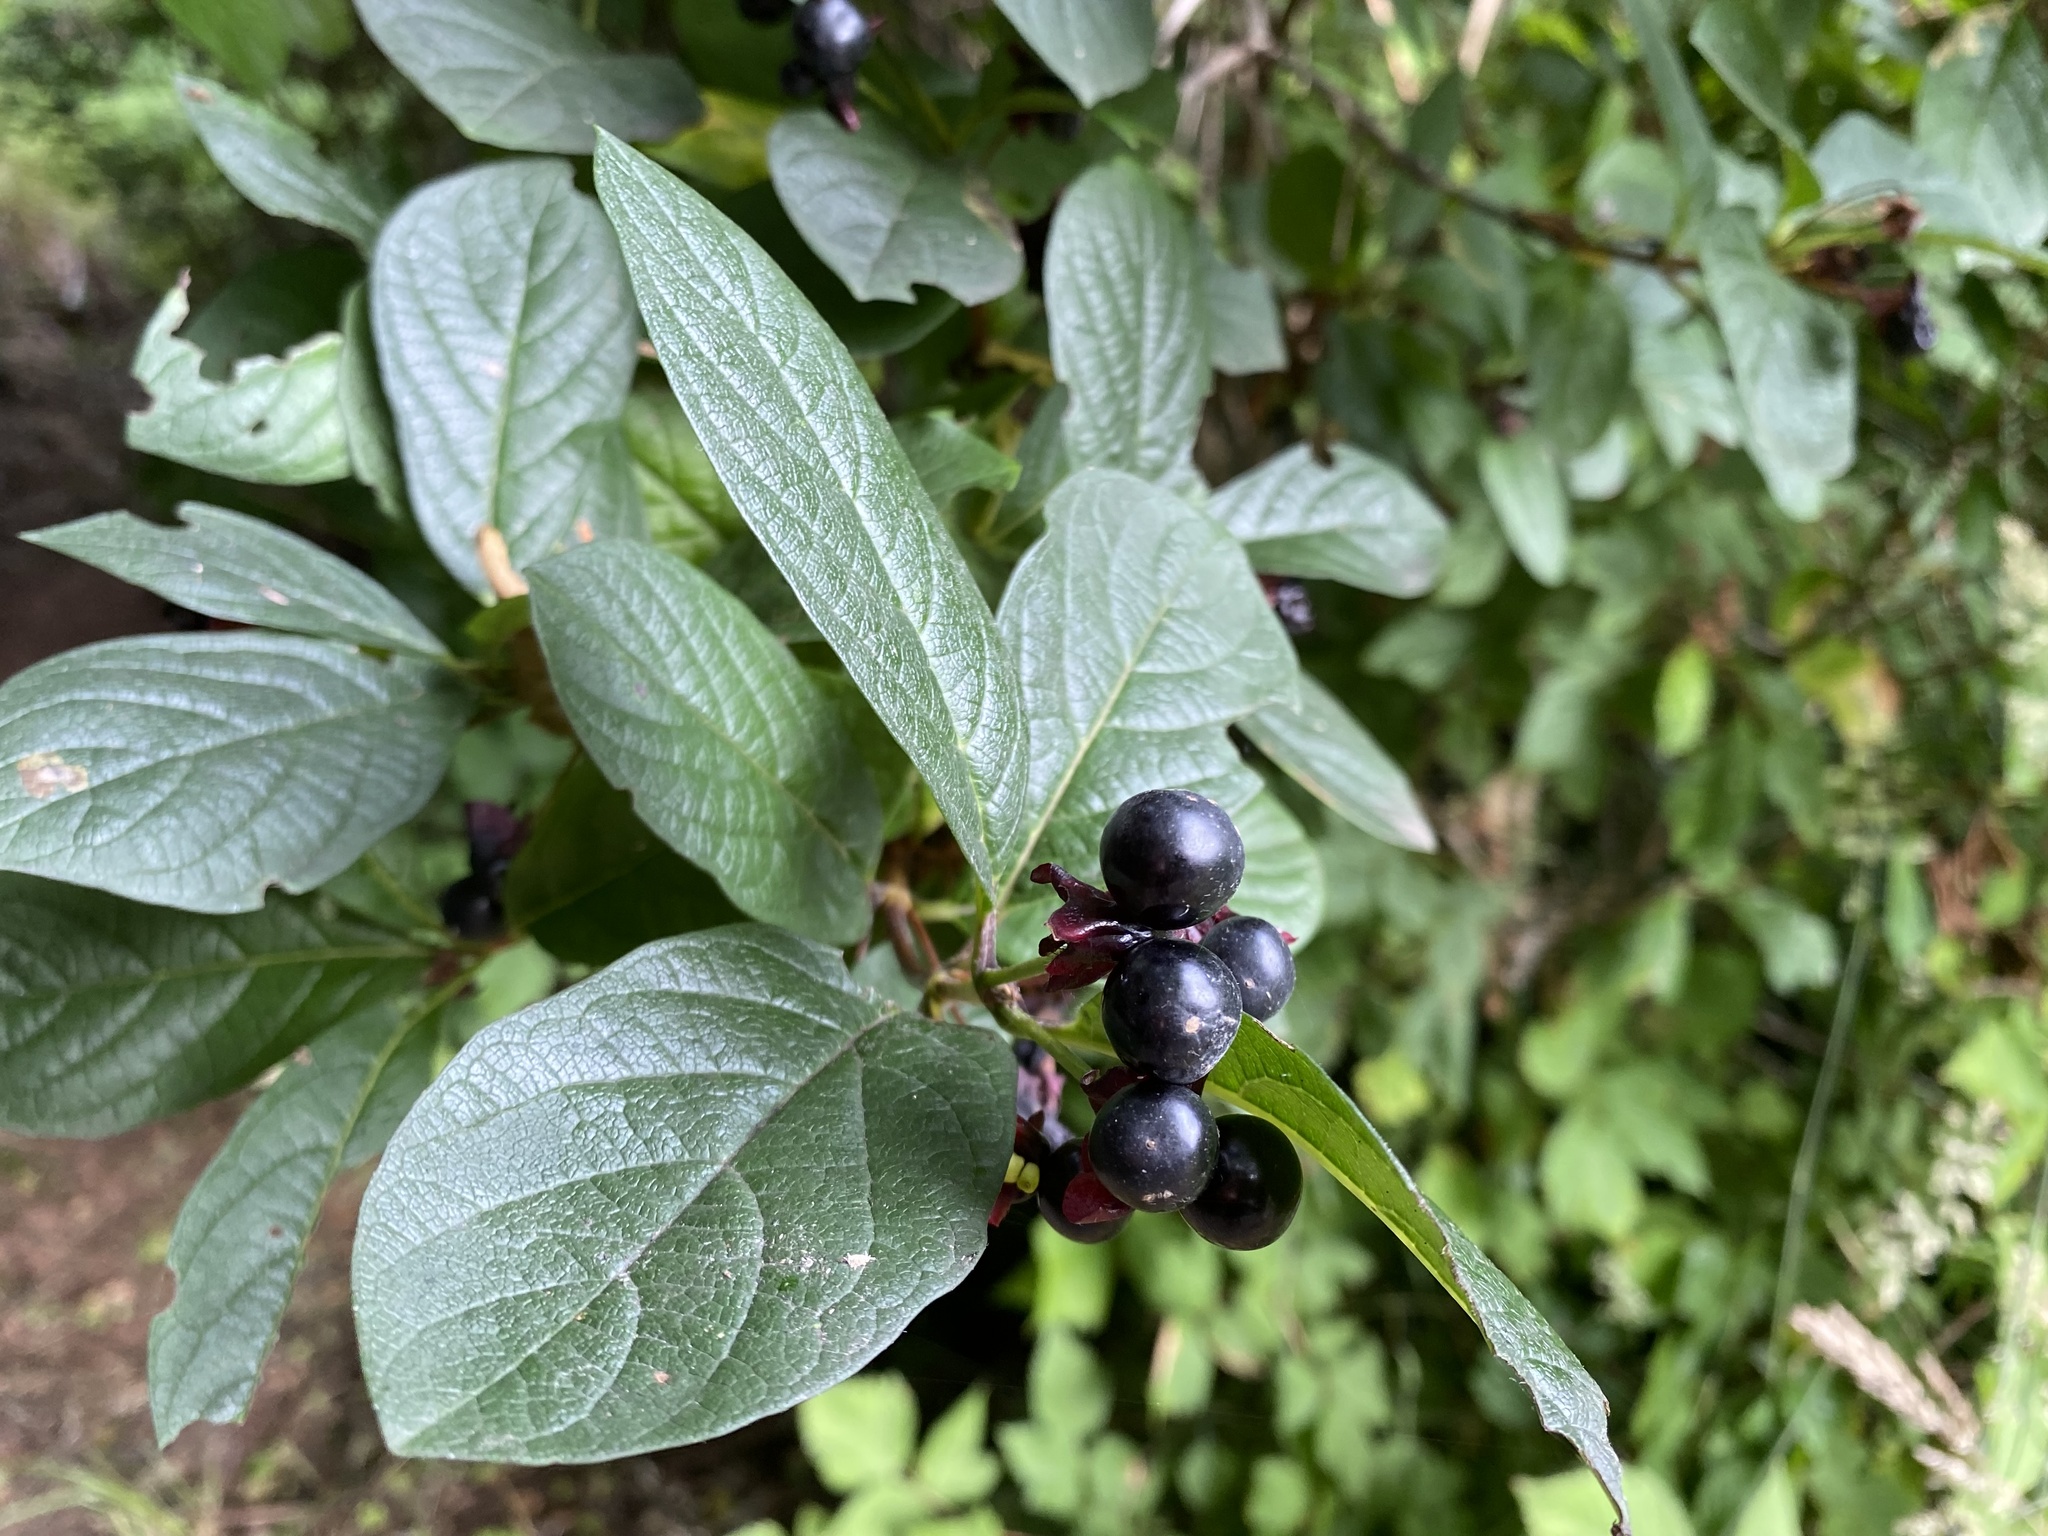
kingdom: Plantae
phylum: Tracheophyta
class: Magnoliopsida
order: Dipsacales
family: Caprifoliaceae
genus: Lonicera
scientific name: Lonicera involucrata
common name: Californian honeysuckle
